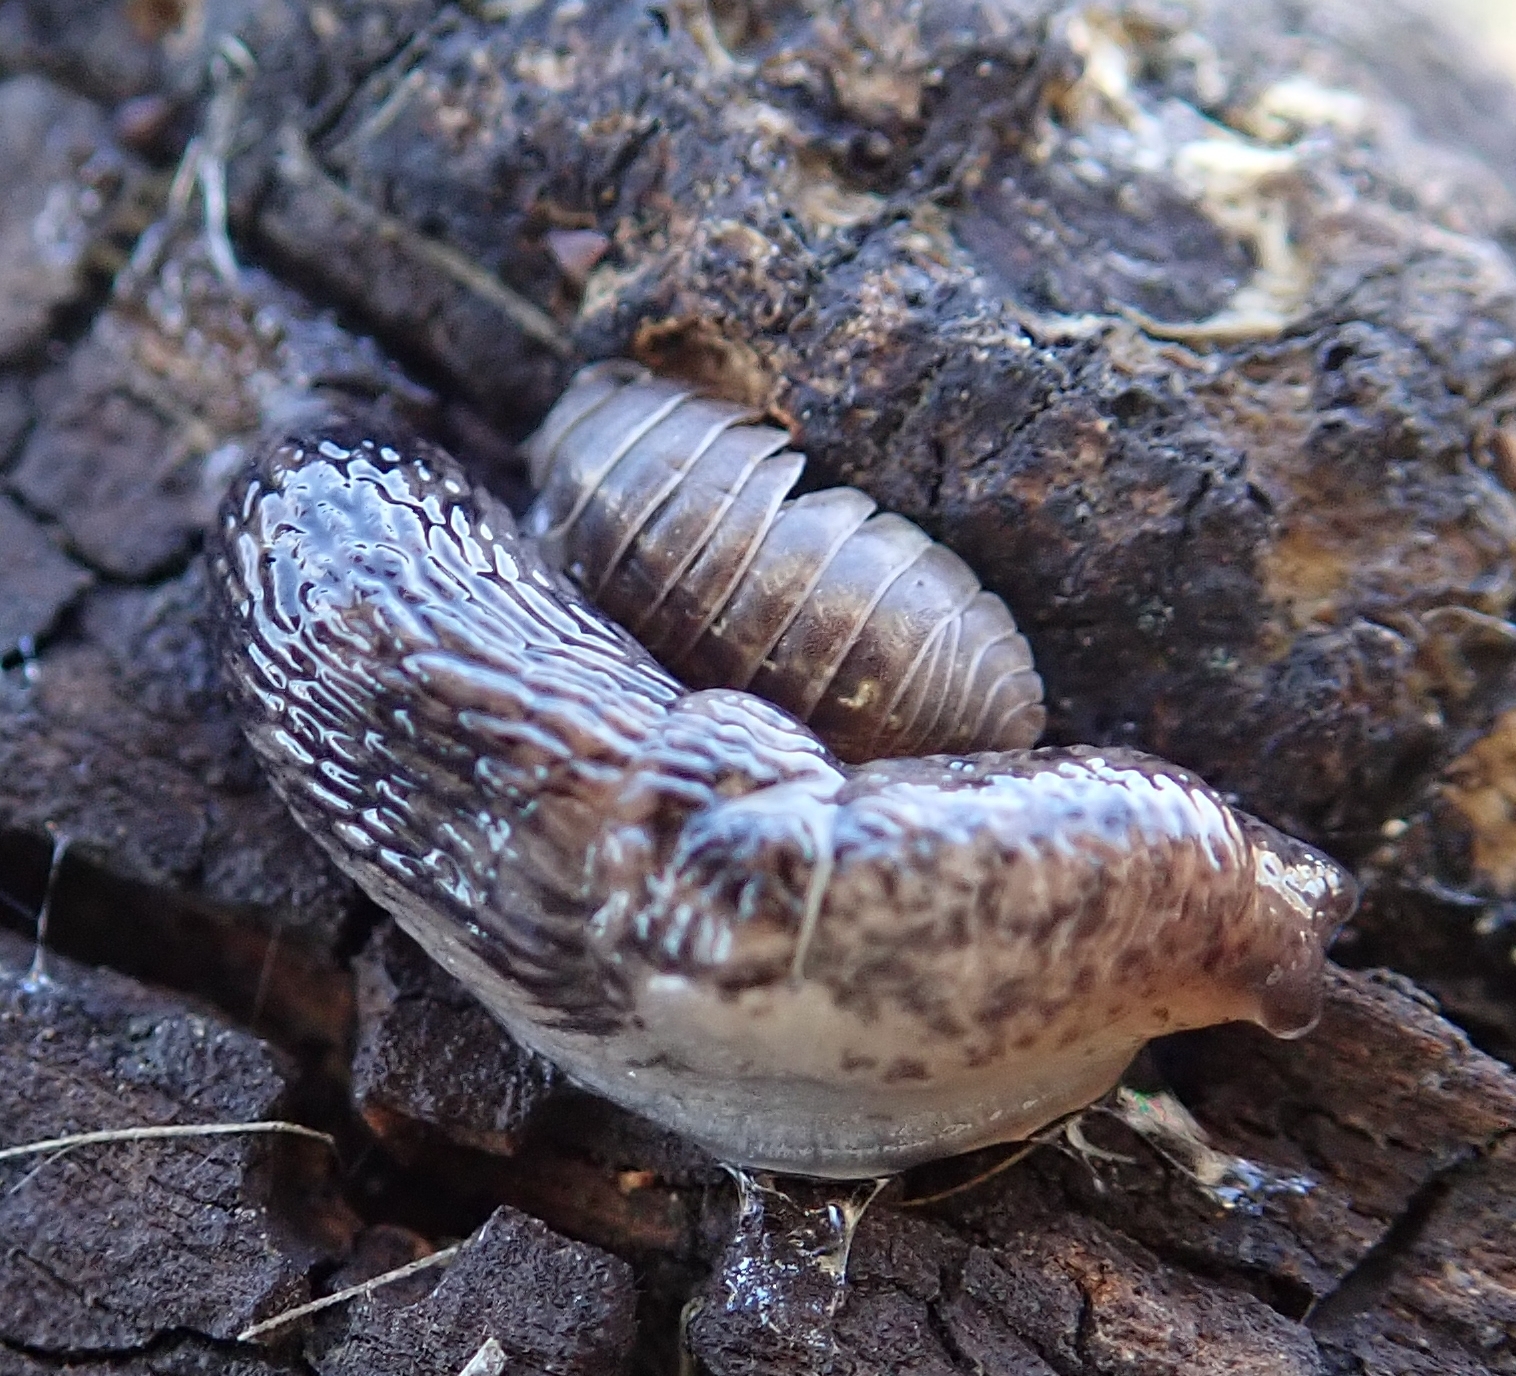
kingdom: Animalia
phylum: Mollusca
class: Gastropoda
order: Stylommatophora
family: Agriolimacidae
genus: Deroceras
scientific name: Deroceras reticulatum
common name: Gray field slug
